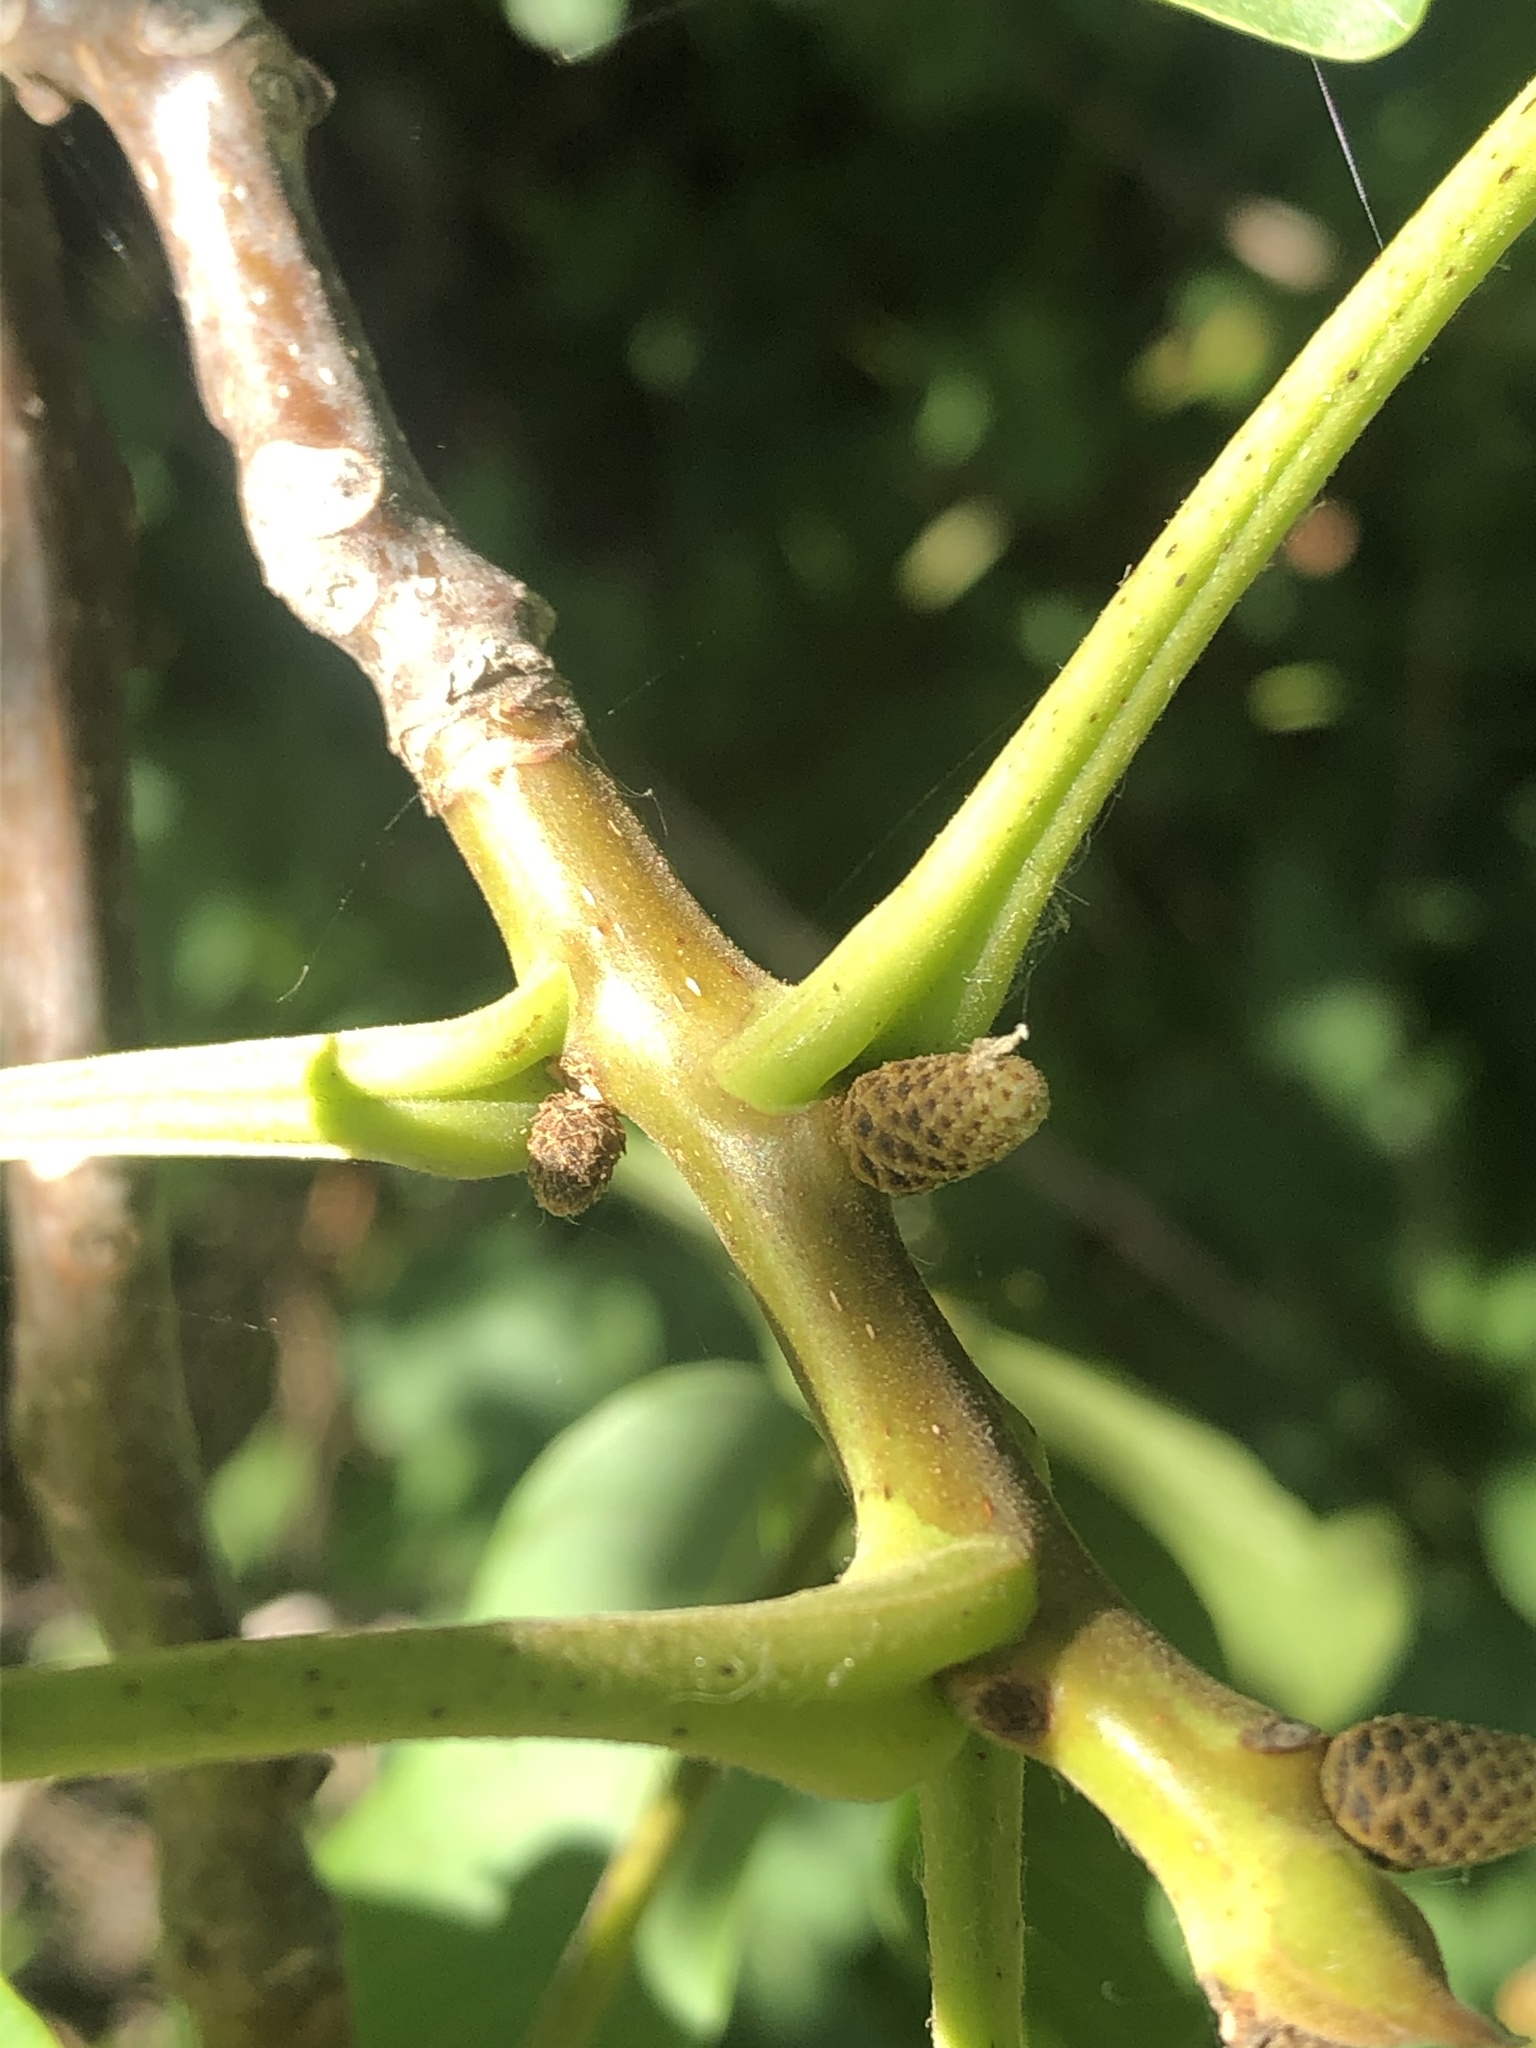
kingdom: Plantae
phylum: Tracheophyta
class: Magnoliopsida
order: Fagales
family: Juglandaceae
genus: Juglans
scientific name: Juglans regia
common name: Walnut
